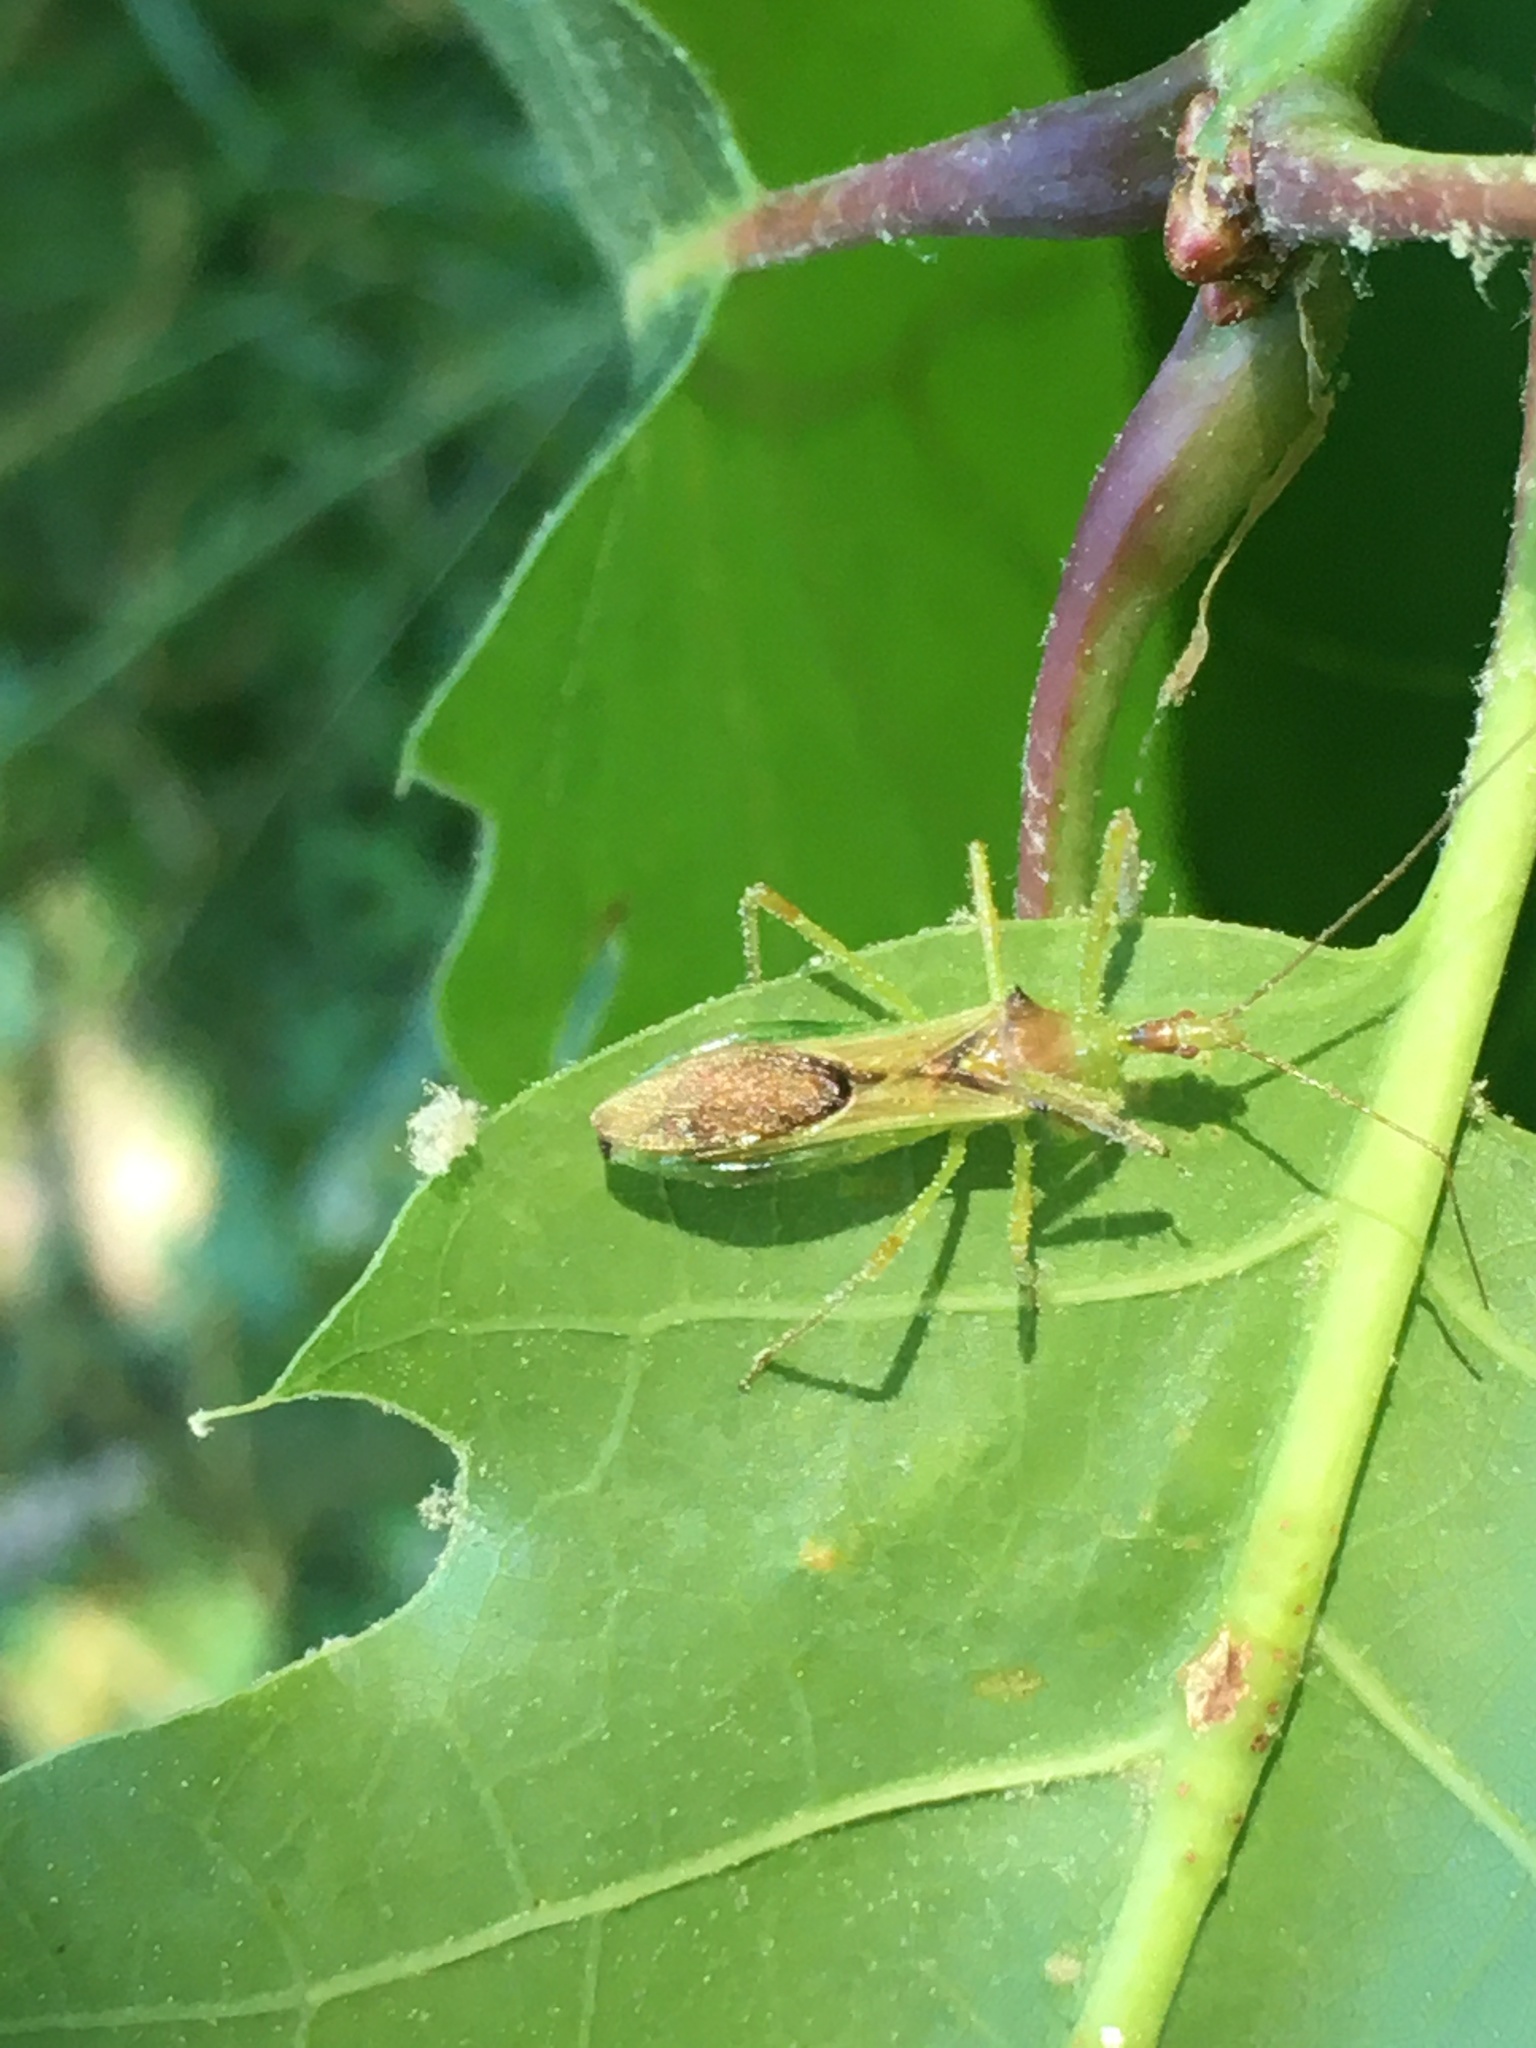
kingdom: Animalia
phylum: Arthropoda
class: Insecta
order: Hemiptera
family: Reduviidae
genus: Zelus
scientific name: Zelus luridus
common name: Pale green assassin bug
